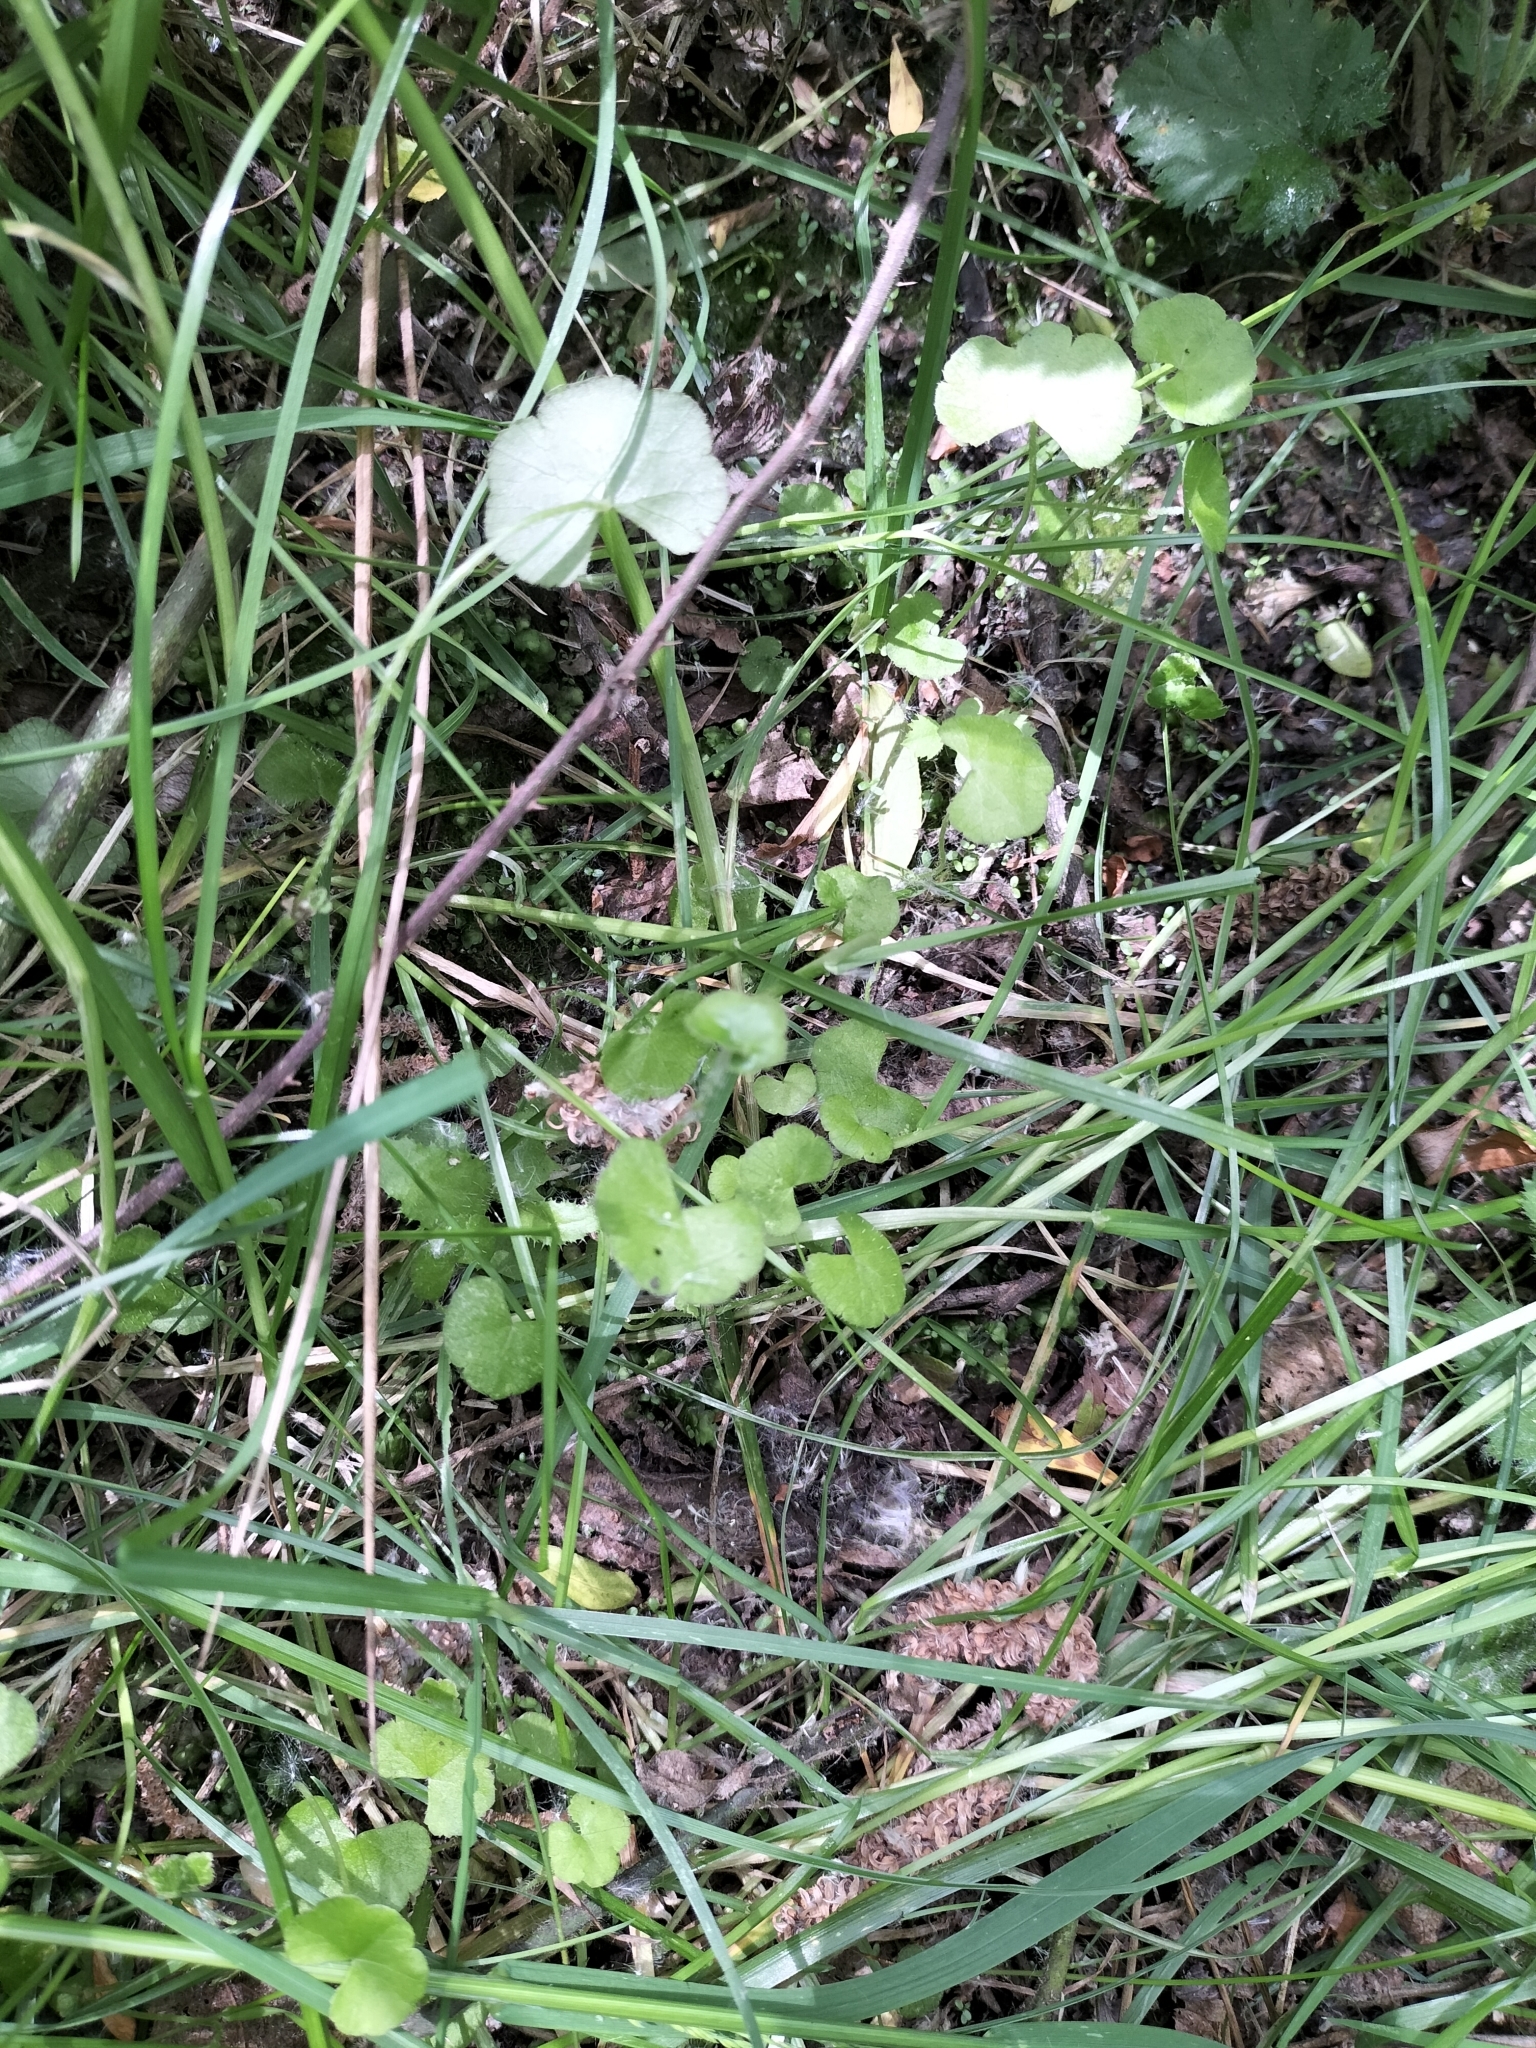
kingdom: Plantae
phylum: Tracheophyta
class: Magnoliopsida
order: Apiales
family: Araliaceae
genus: Hydrocotyle
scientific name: Hydrocotyle novae-zeelandiae
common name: New zealand pennywort
